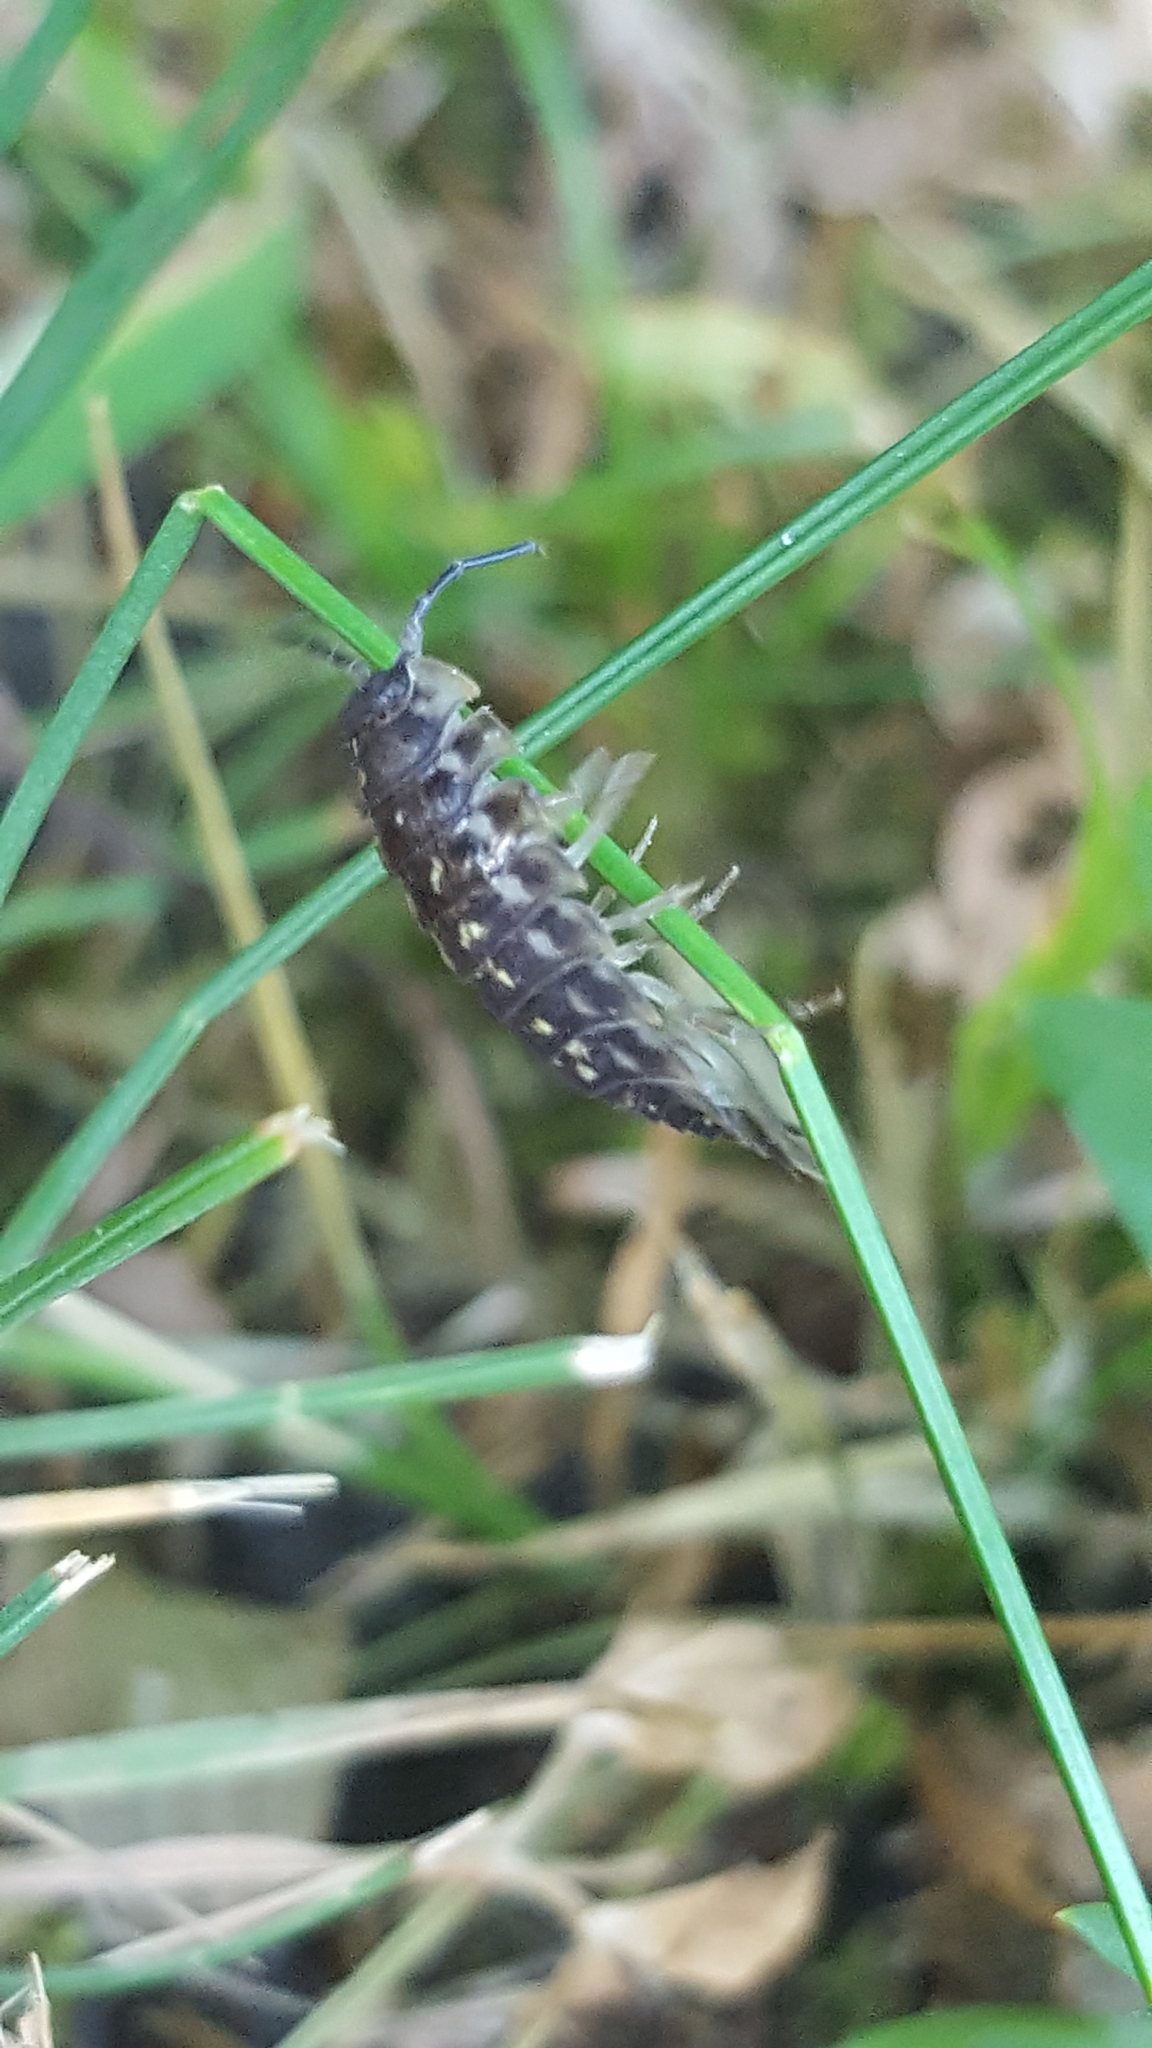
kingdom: Animalia
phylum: Arthropoda
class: Malacostraca
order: Isopoda
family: Oniscidae
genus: Oniscus
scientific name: Oniscus asellus
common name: Common shiny woodlouse
